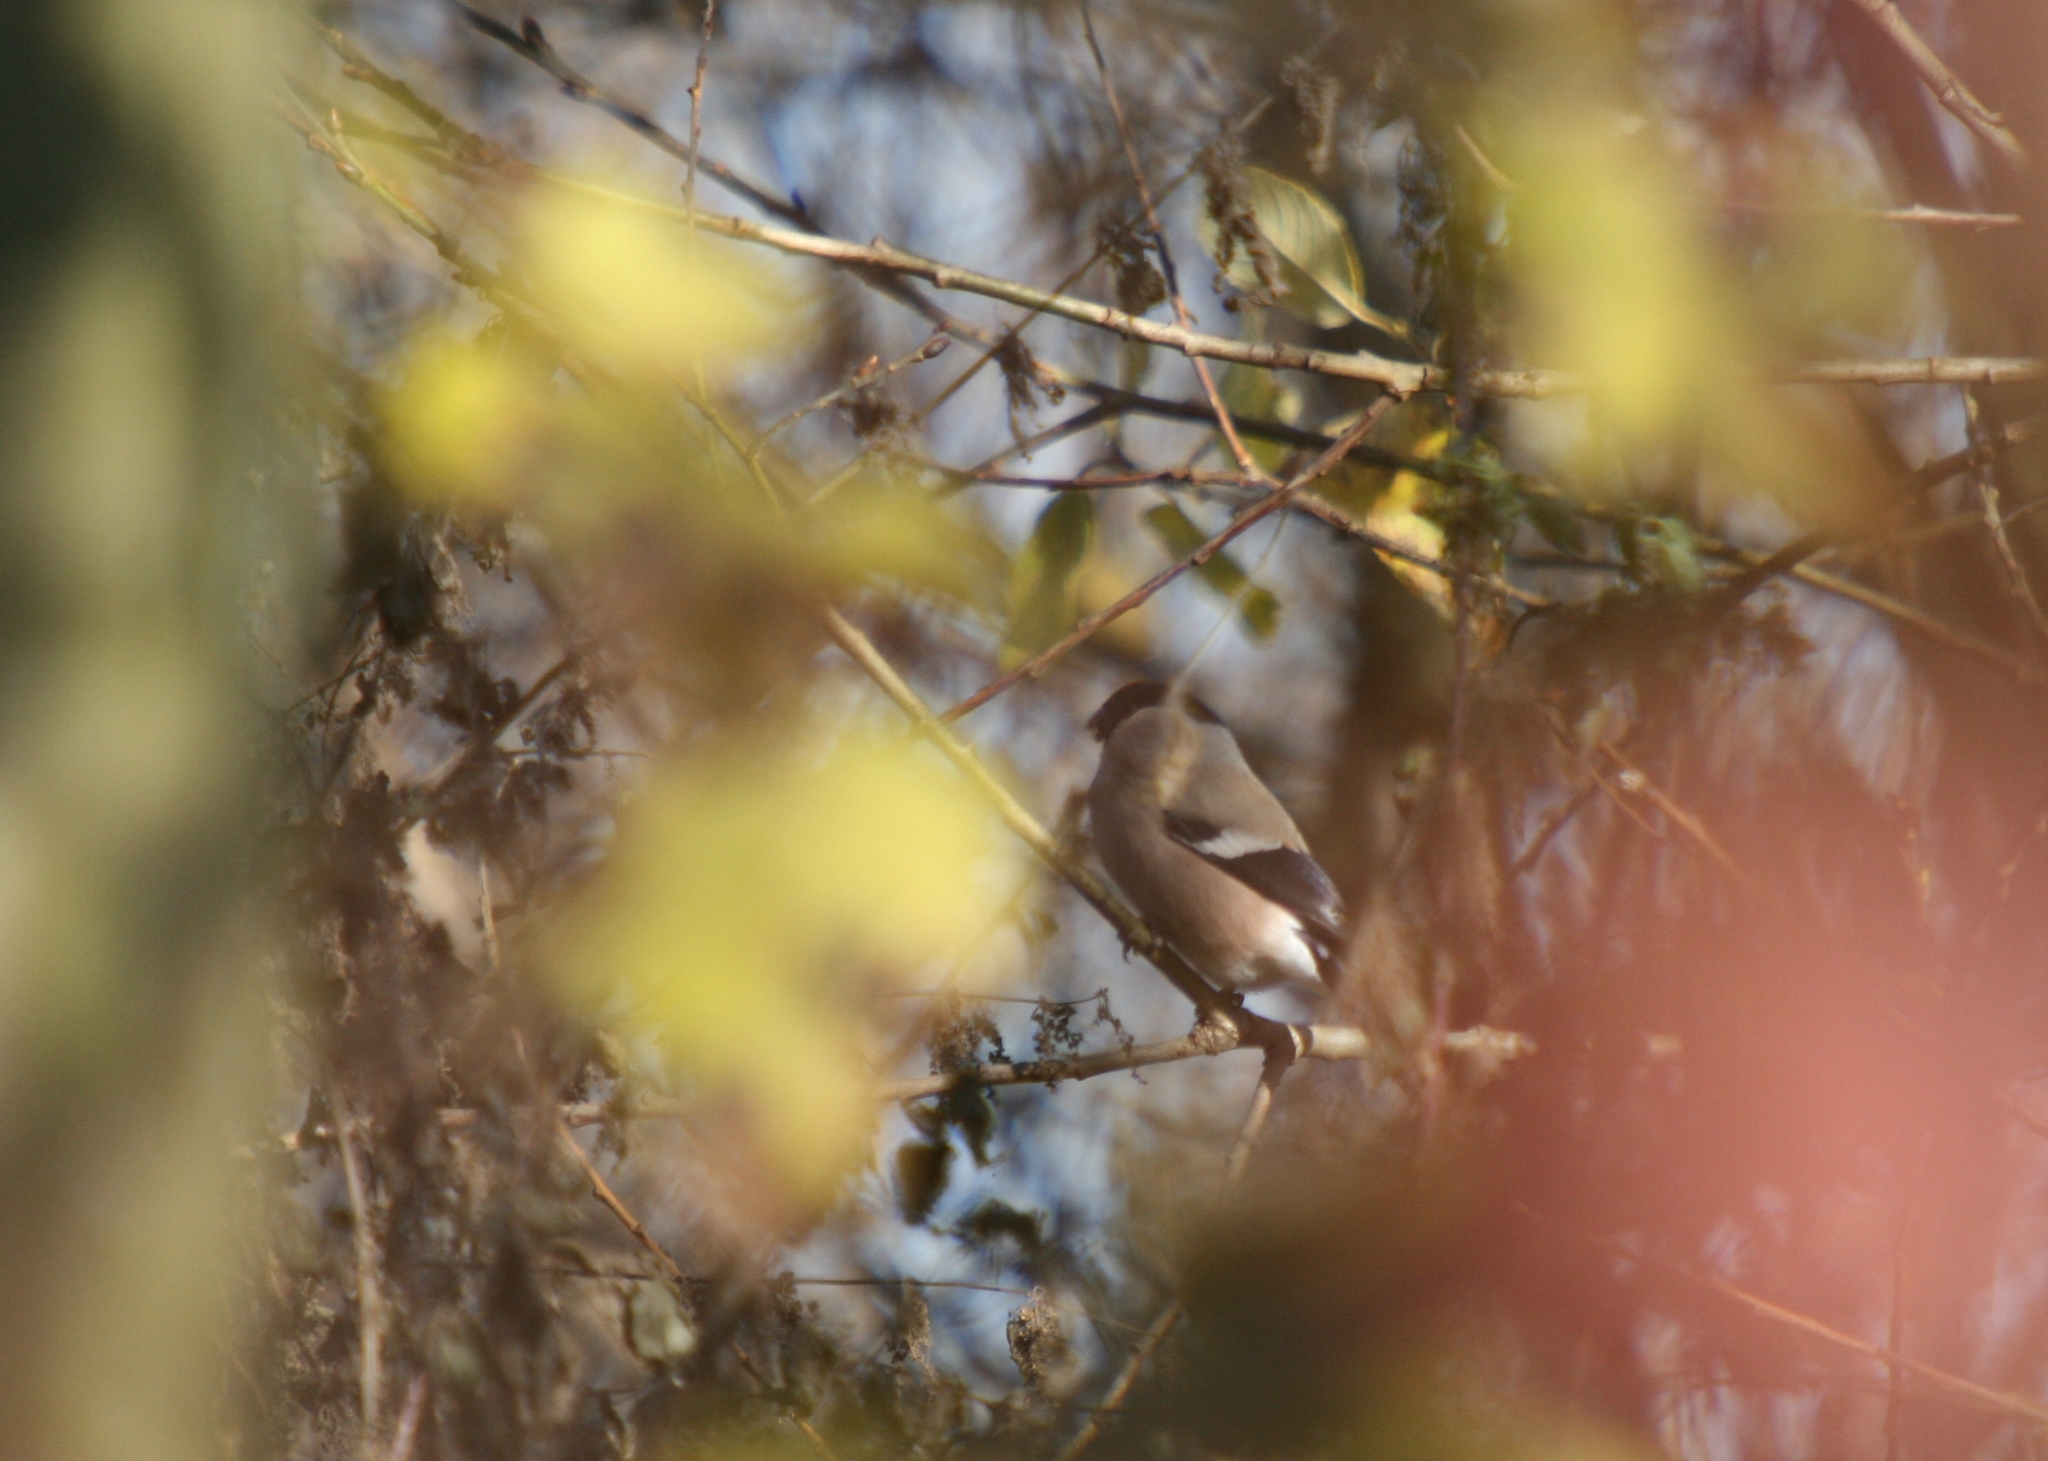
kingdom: Animalia
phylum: Chordata
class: Aves
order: Passeriformes
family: Fringillidae
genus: Pyrrhula
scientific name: Pyrrhula pyrrhula
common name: Eurasian bullfinch
